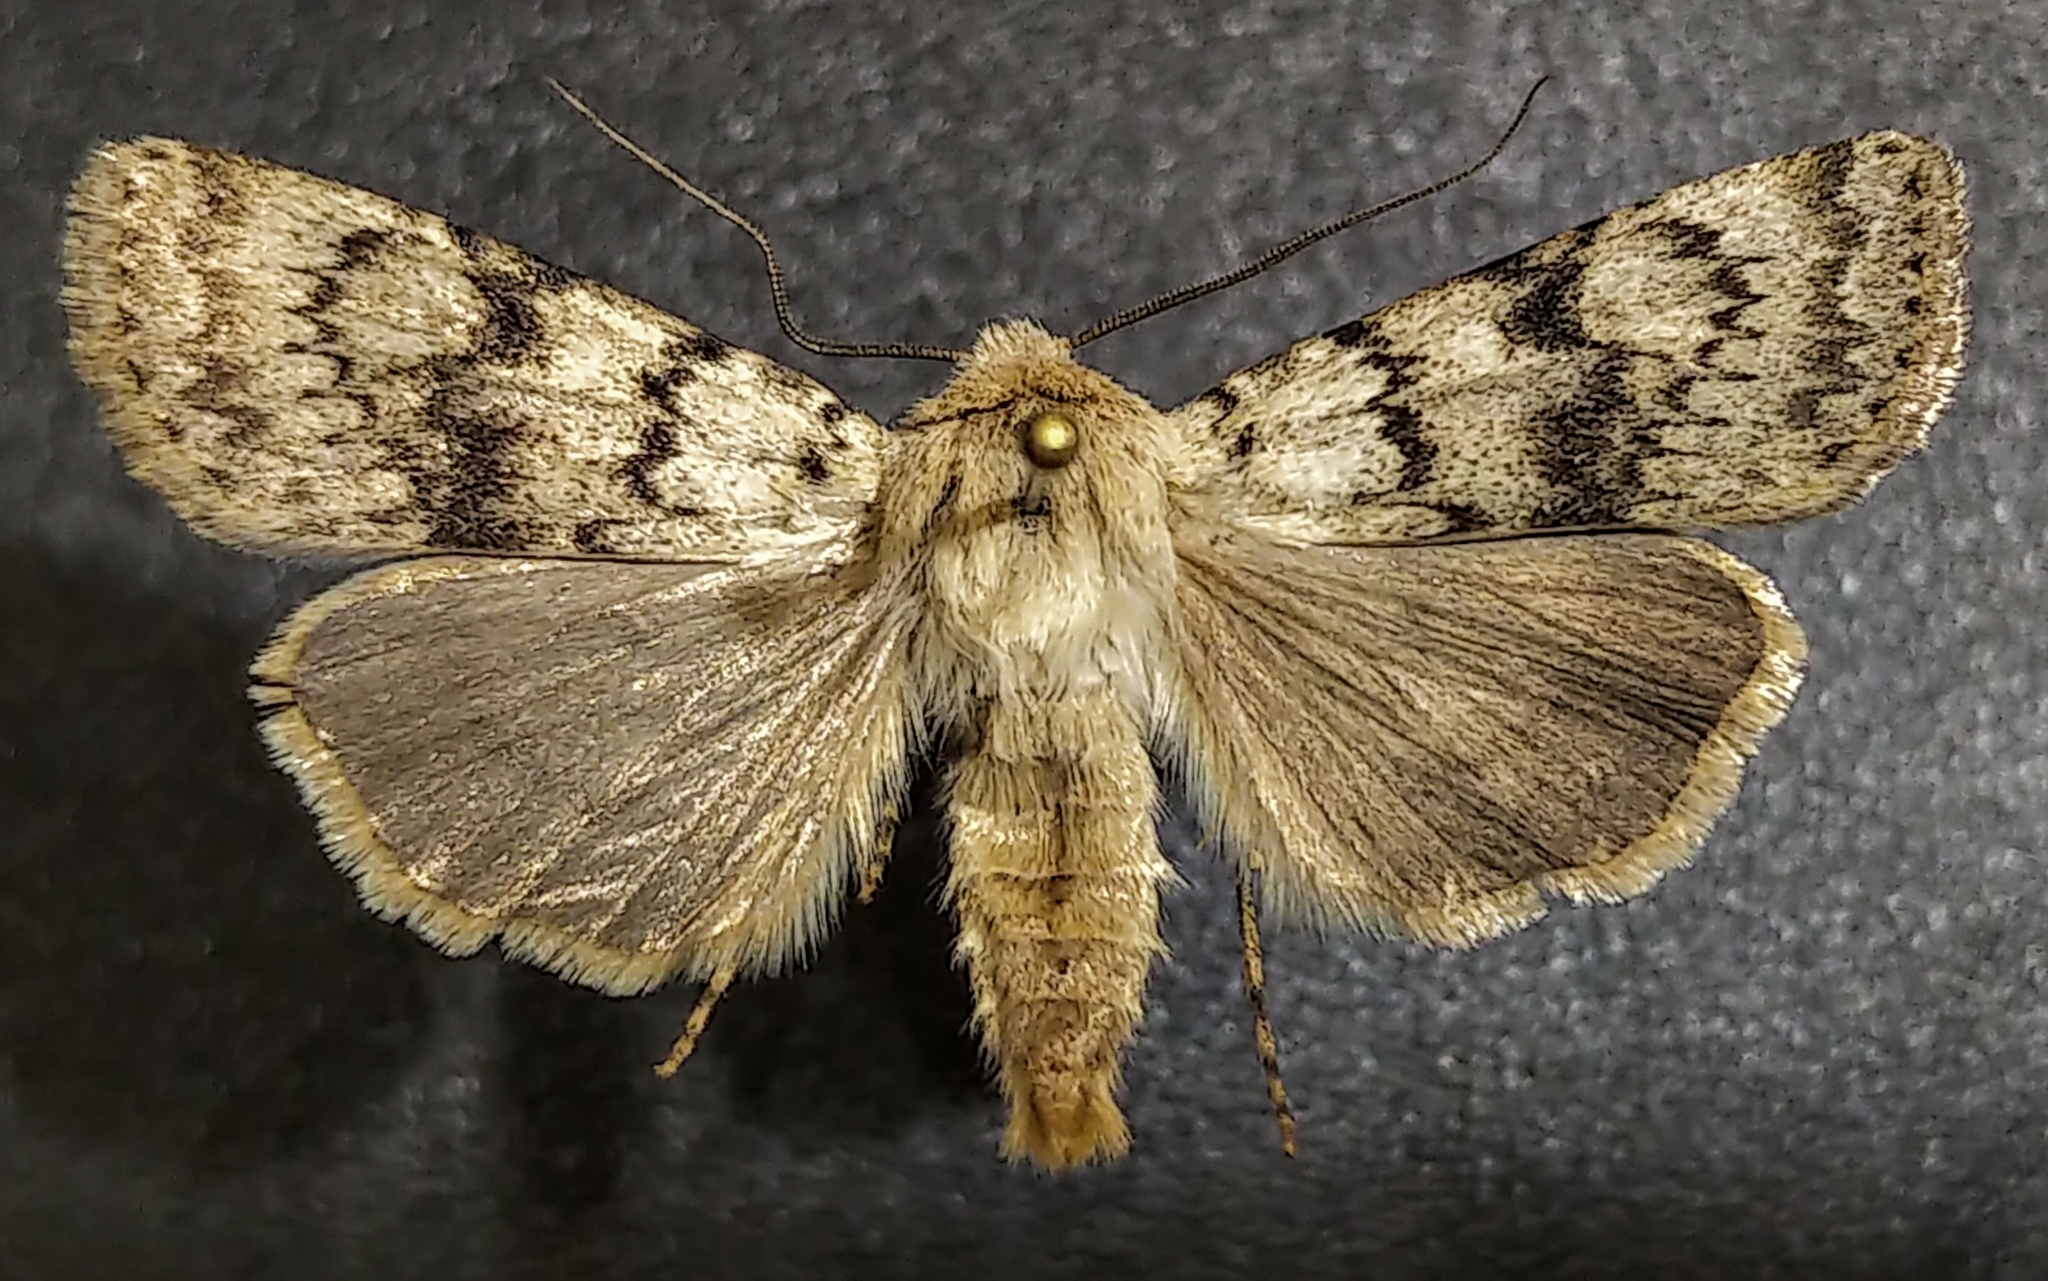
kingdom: Animalia
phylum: Arthropoda
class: Insecta
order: Lepidoptera
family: Noctuidae
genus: Euxoa
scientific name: Euxoa setonia
